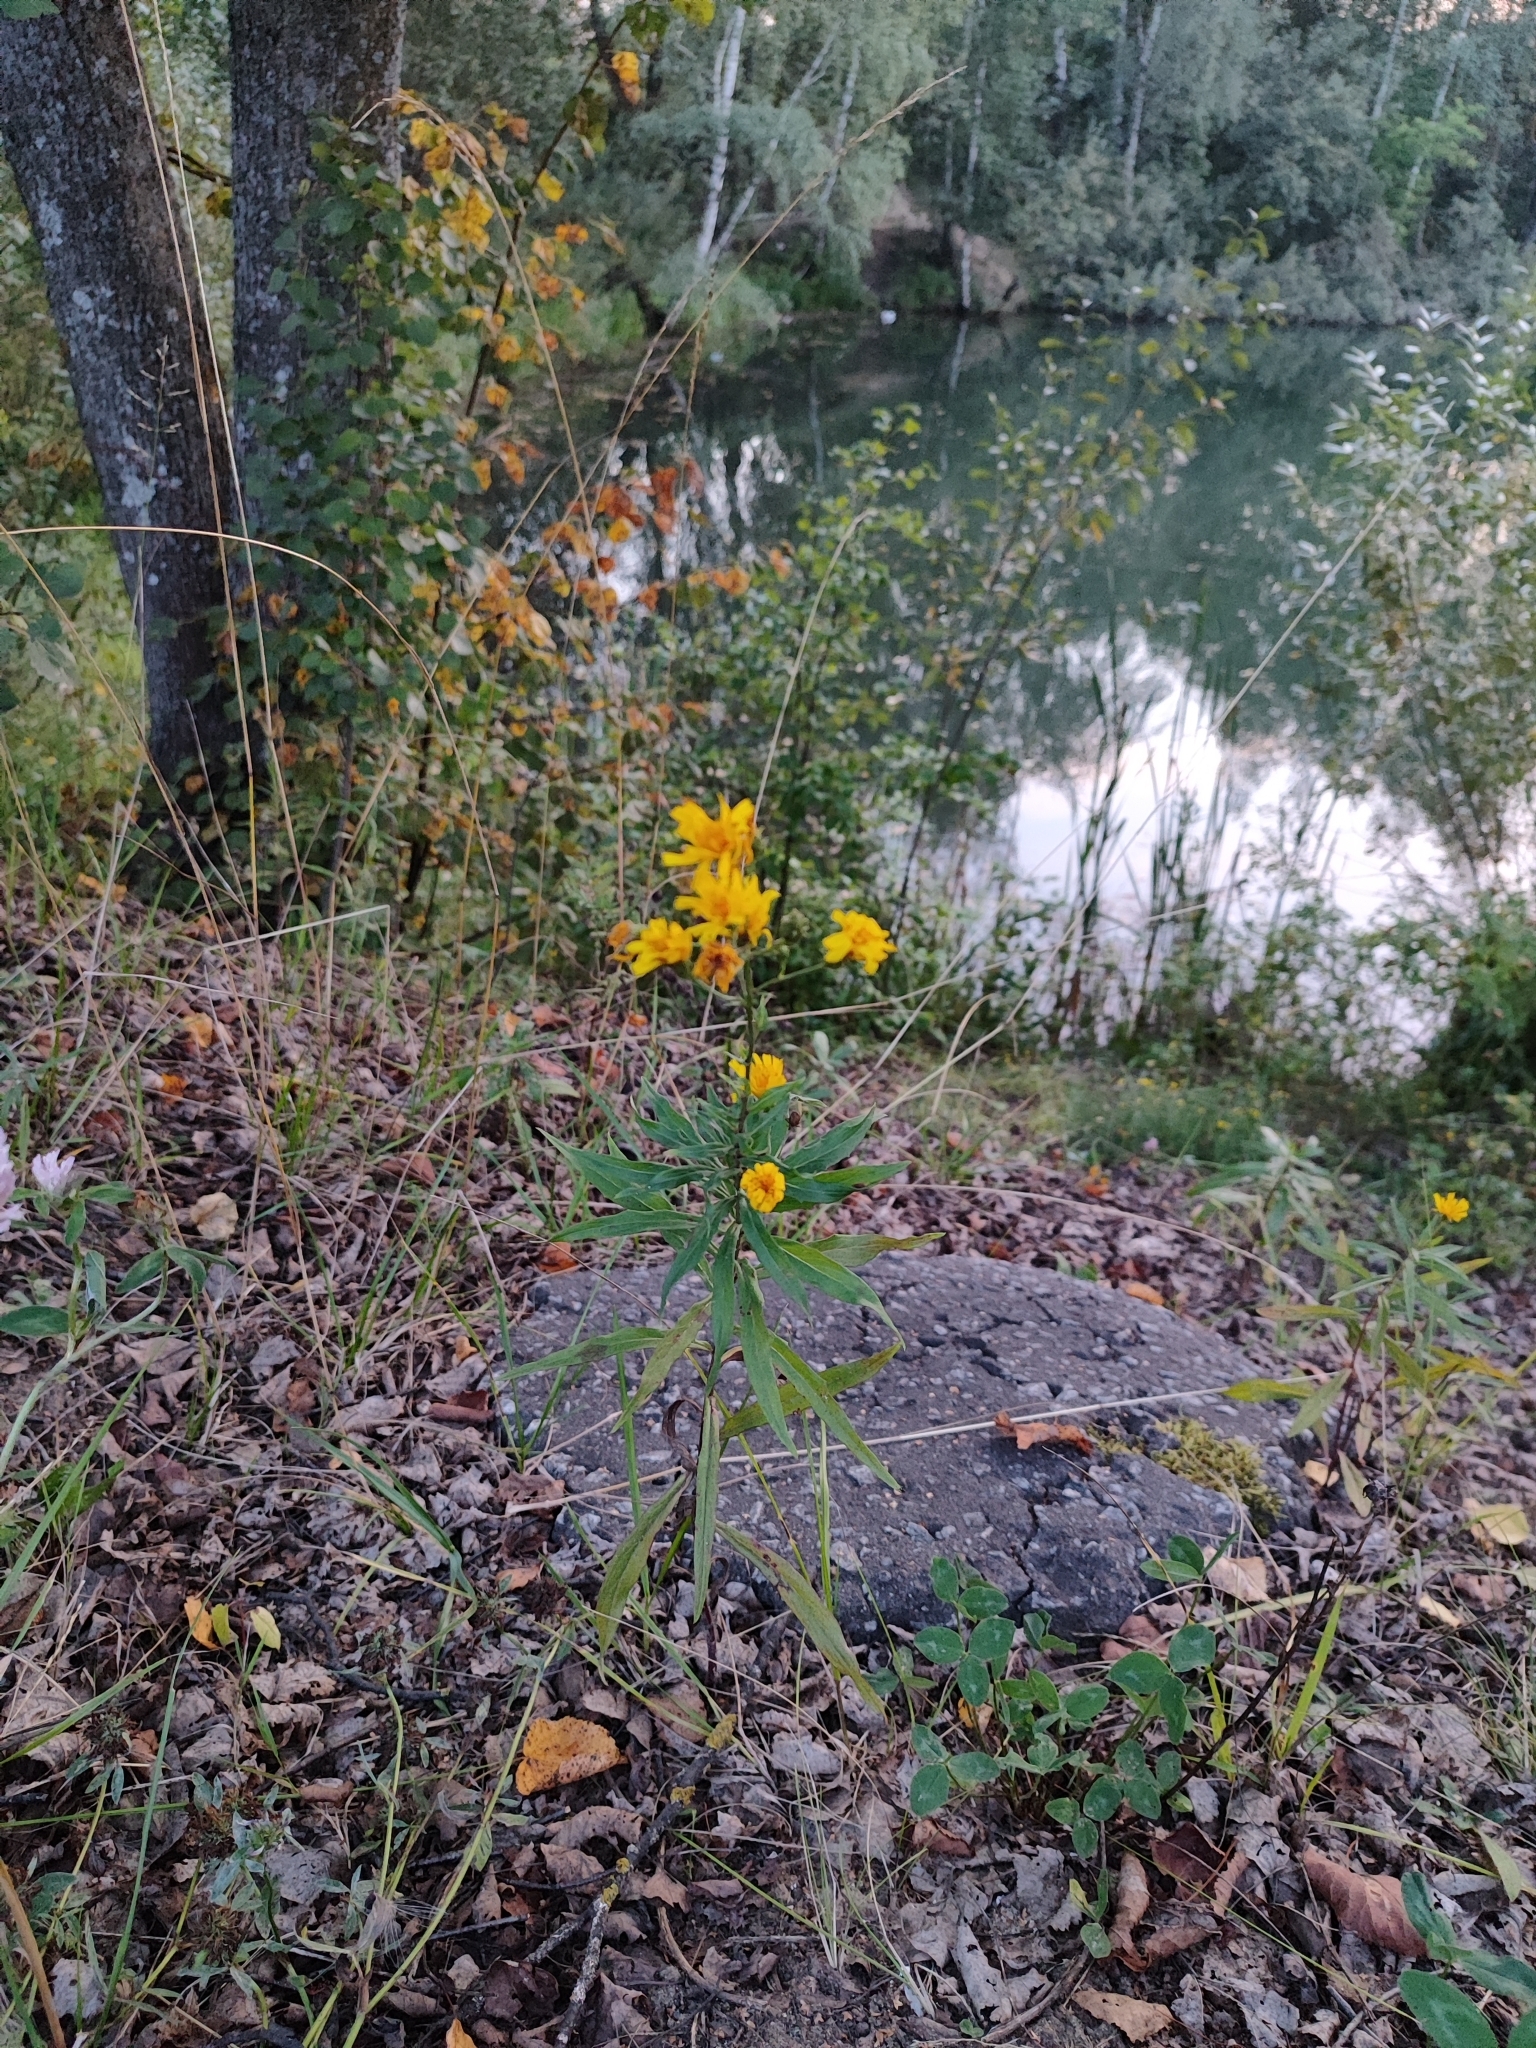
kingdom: Plantae
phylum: Tracheophyta
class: Magnoliopsida
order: Asterales
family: Asteraceae
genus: Hieracium
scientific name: Hieracium umbellatum
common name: Northern hawkweed
